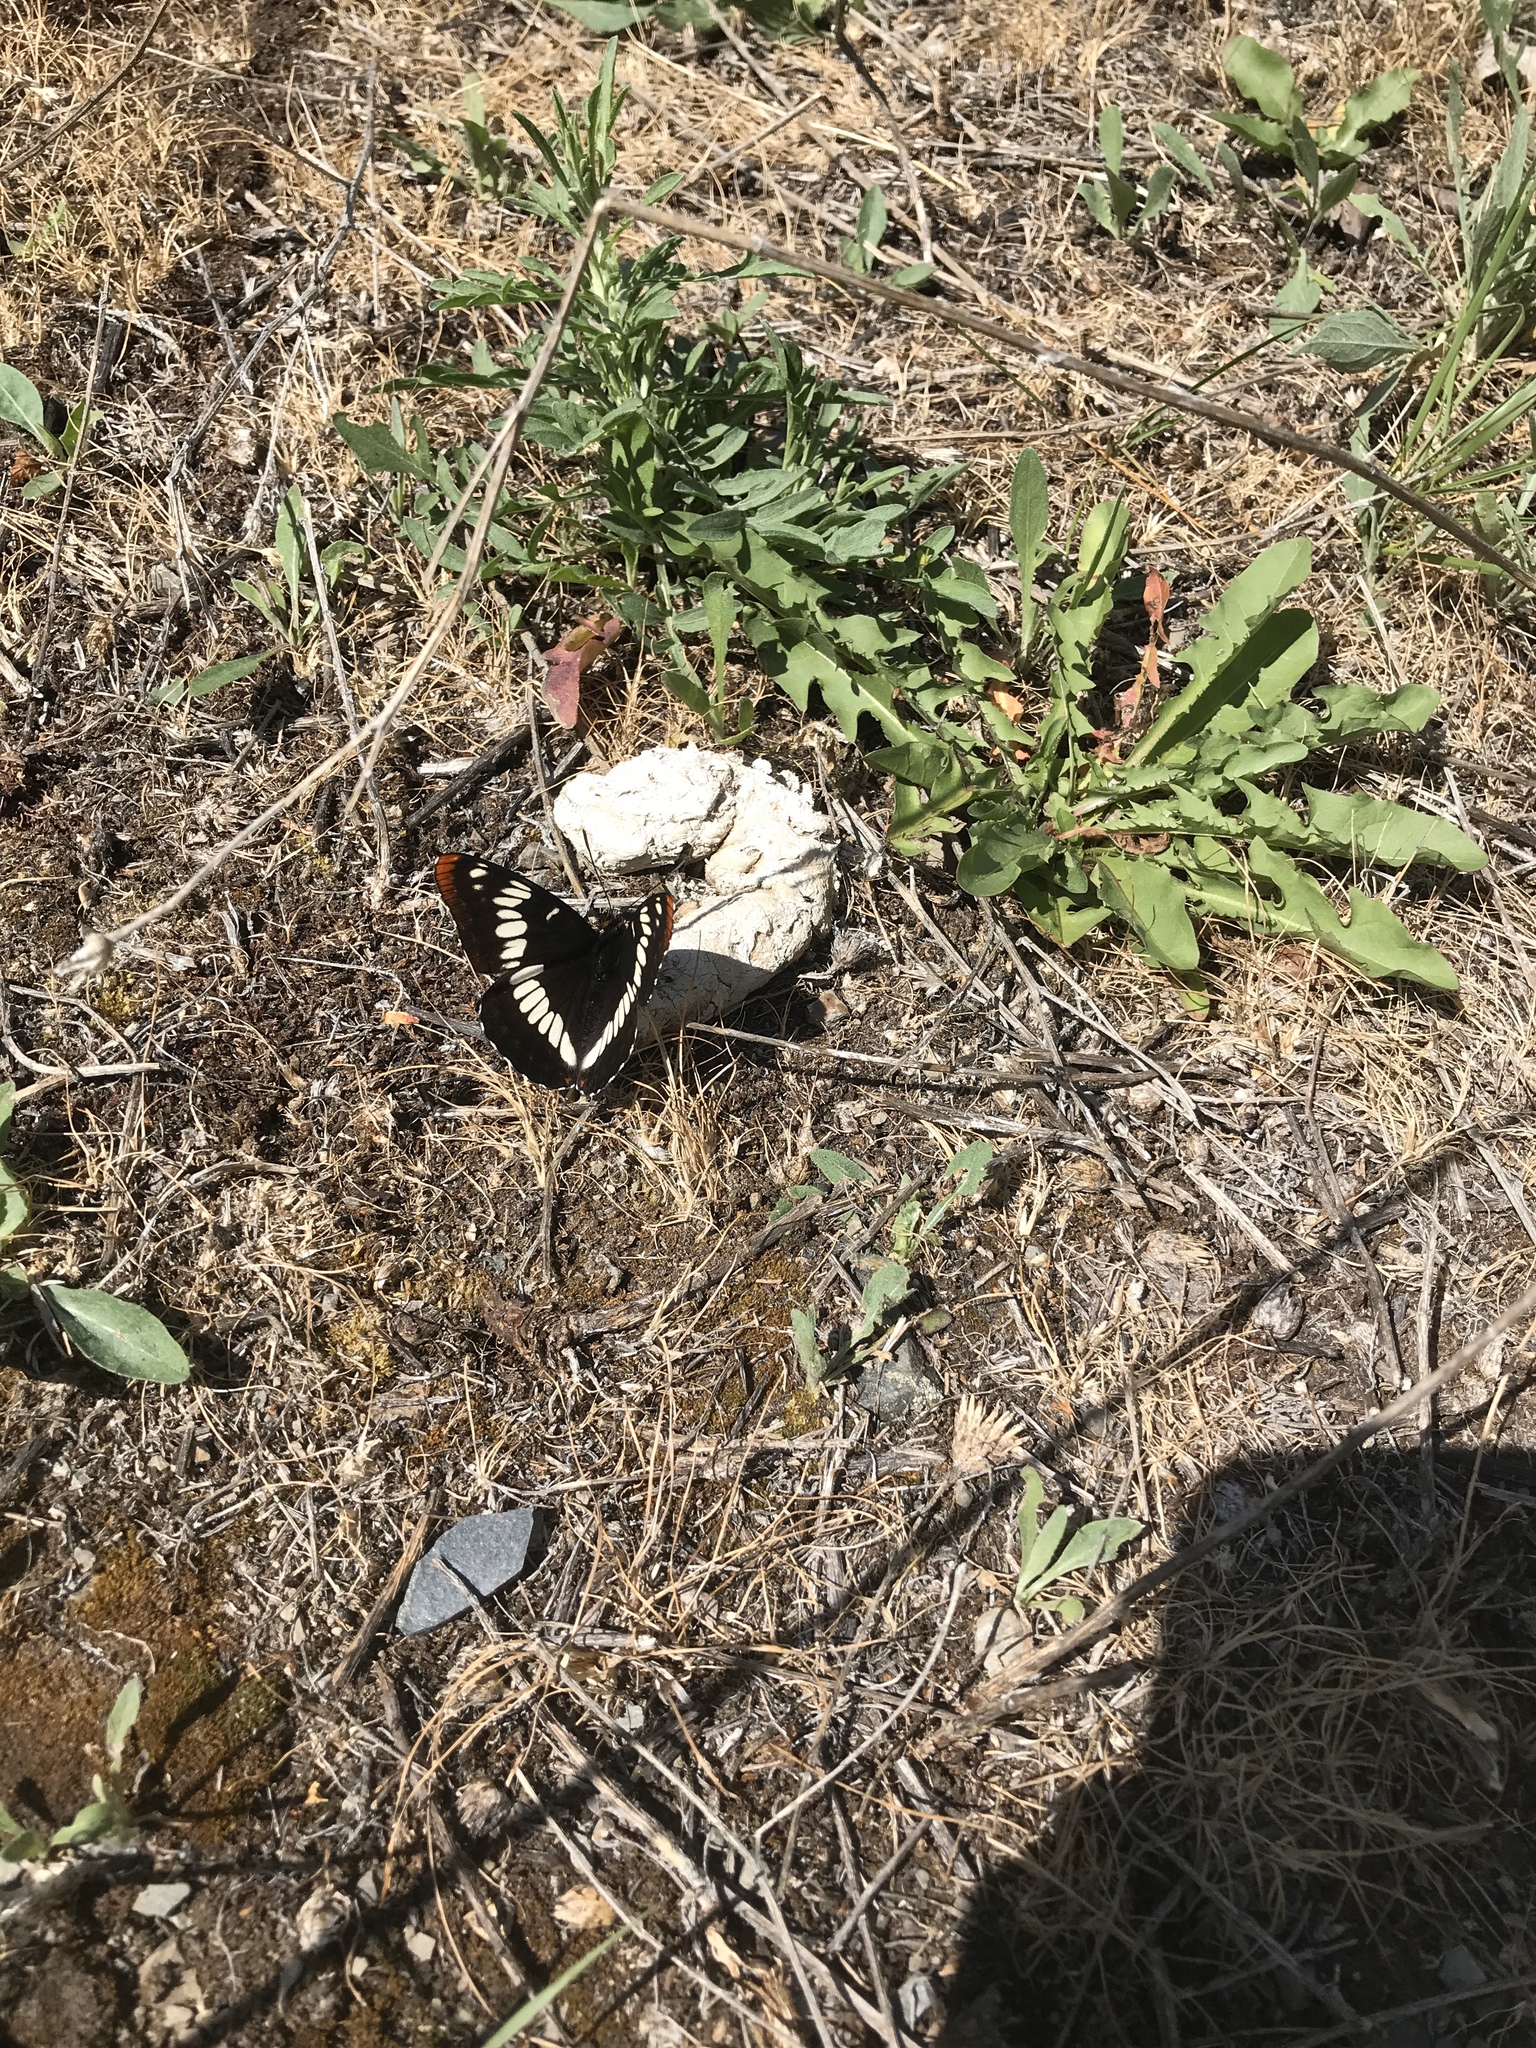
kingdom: Animalia
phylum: Arthropoda
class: Insecta
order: Lepidoptera
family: Nymphalidae
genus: Limenitis
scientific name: Limenitis lorquini
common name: Lorquin's admiral
